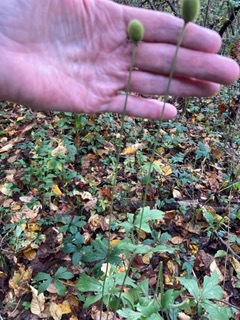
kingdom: Plantae
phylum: Tracheophyta
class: Magnoliopsida
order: Ranunculales
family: Ranunculaceae
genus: Anemone
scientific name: Anemone virginiana
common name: Tall anemone
